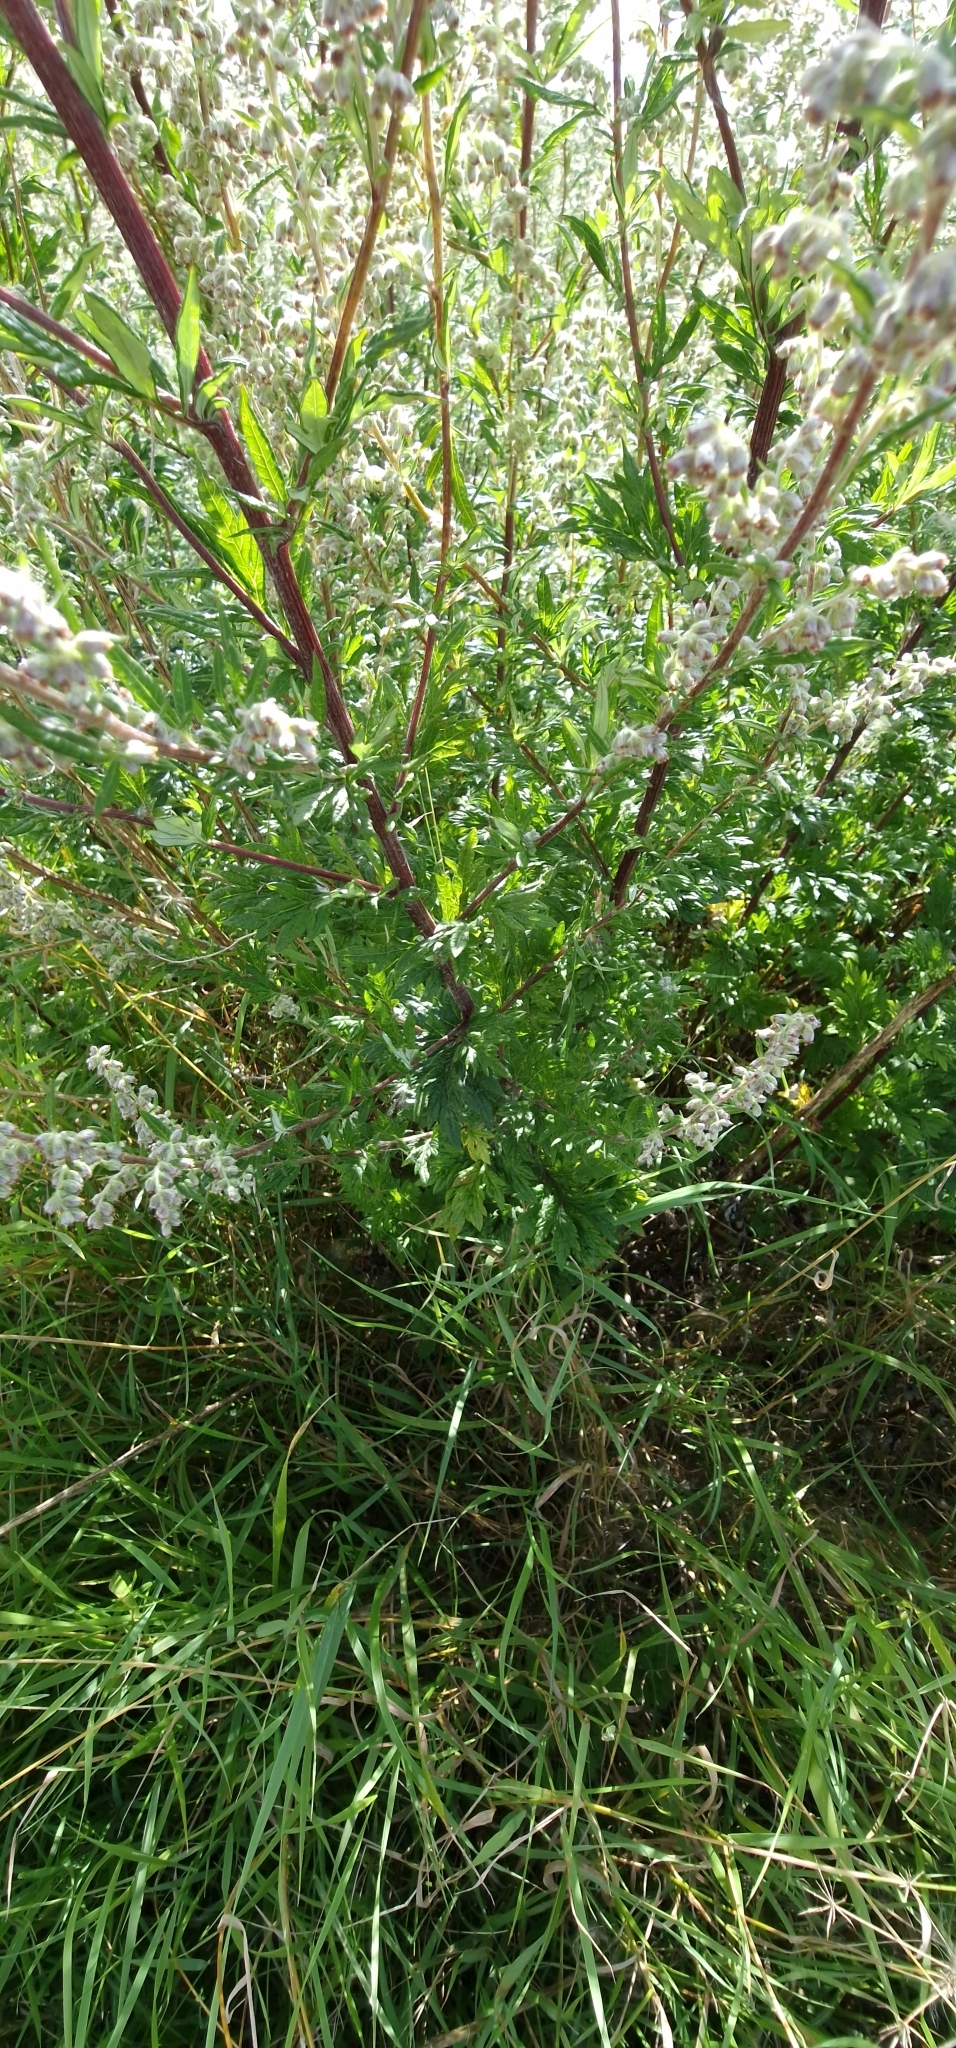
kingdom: Plantae
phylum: Tracheophyta
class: Magnoliopsida
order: Asterales
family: Asteraceae
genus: Artemisia
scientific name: Artemisia vulgaris
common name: Mugwort
